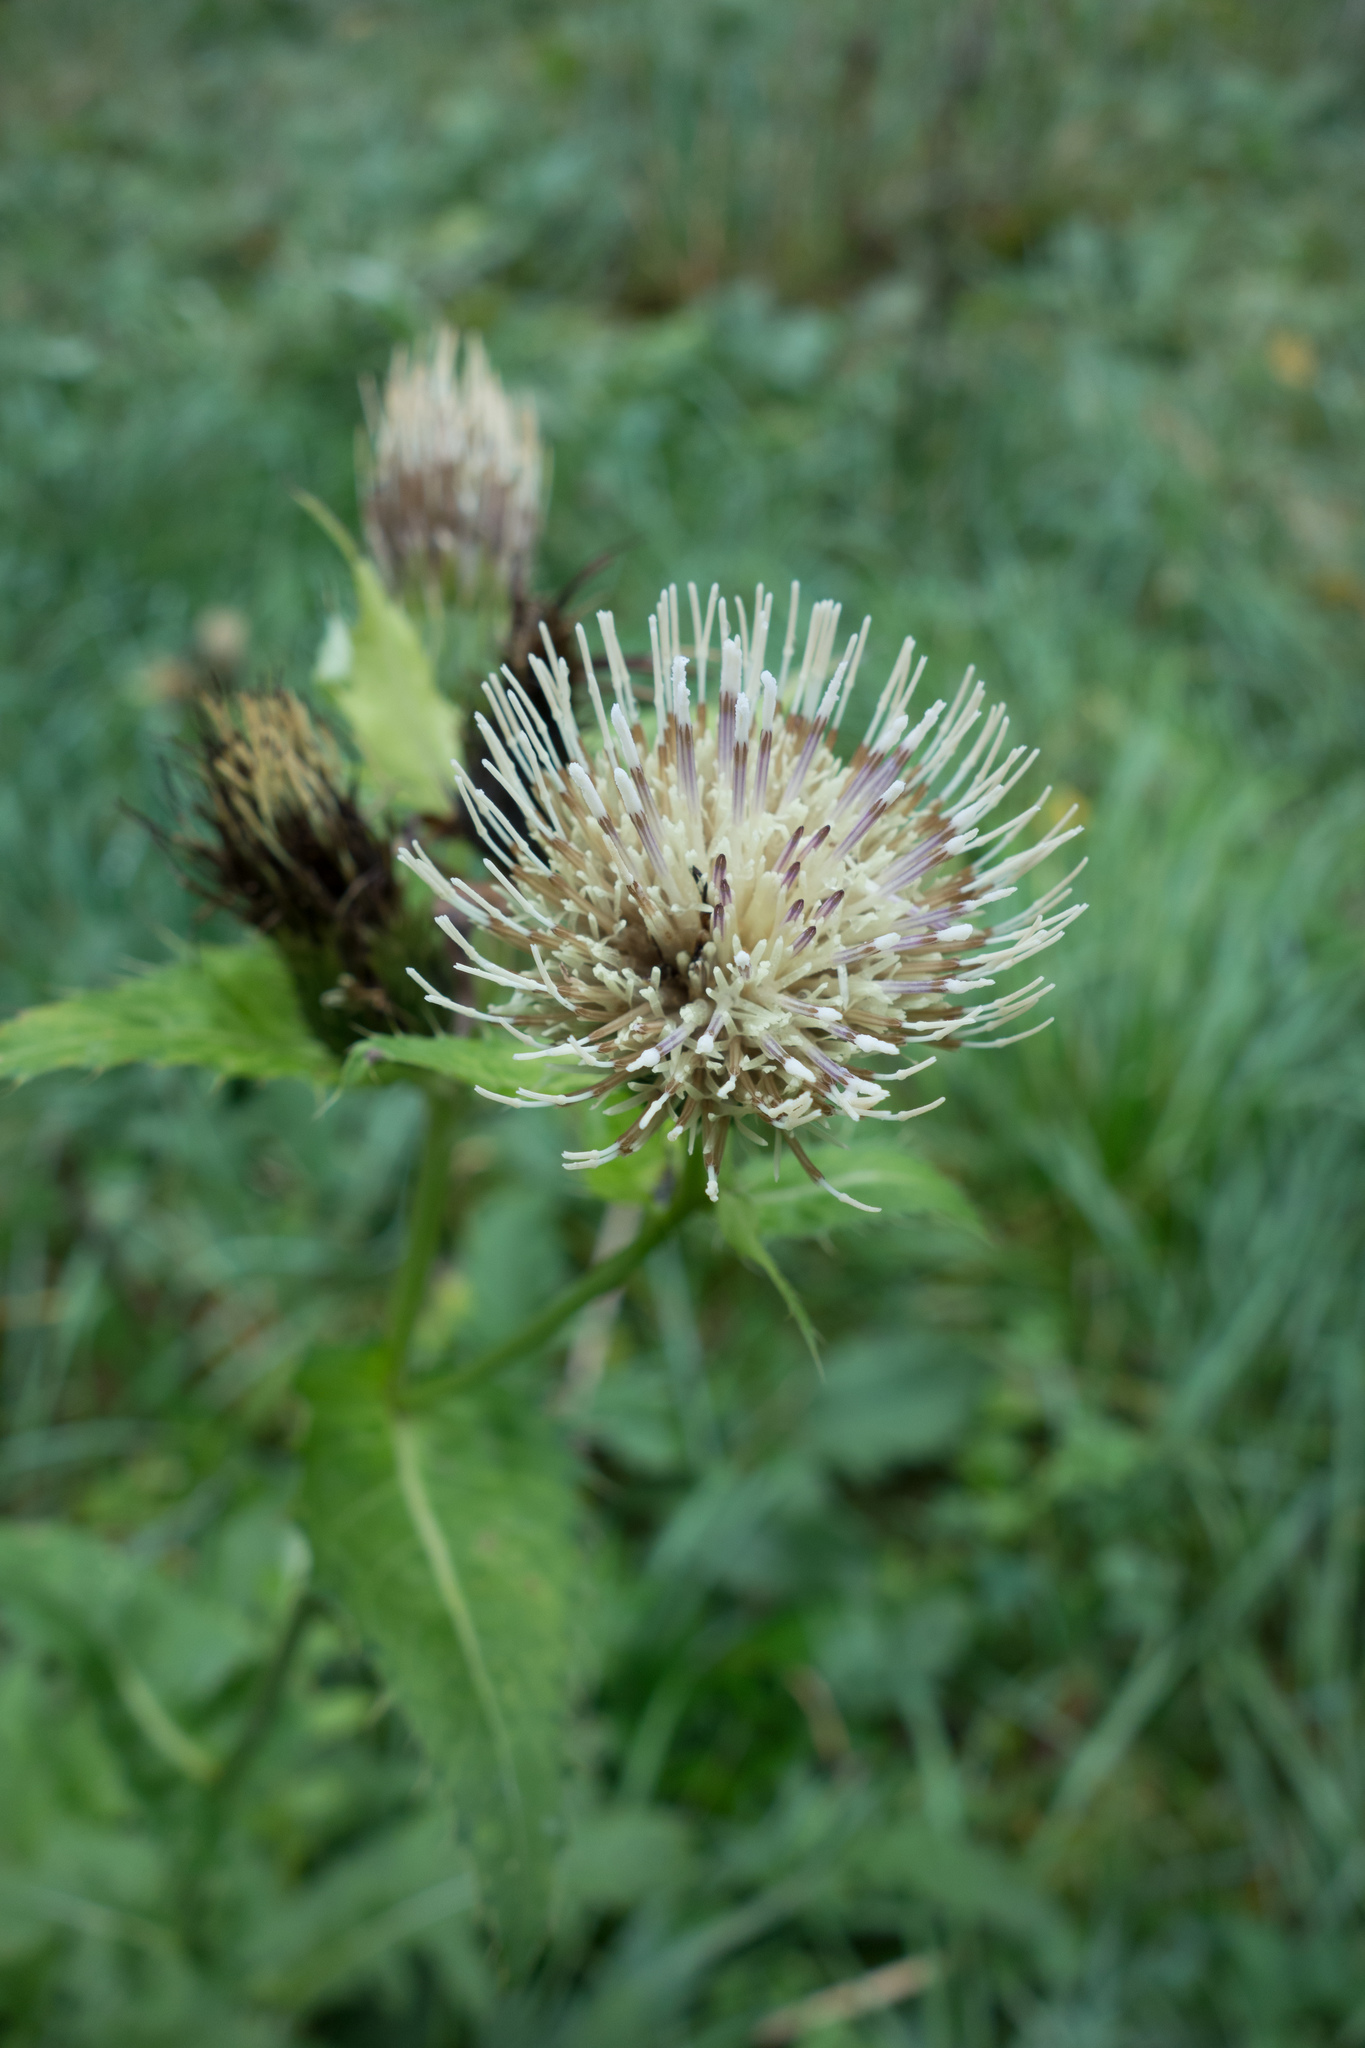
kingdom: Plantae
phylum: Tracheophyta
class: Magnoliopsida
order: Asterales
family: Asteraceae
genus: Cirsium
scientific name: Cirsium oleraceum
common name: Cabbage thistle
